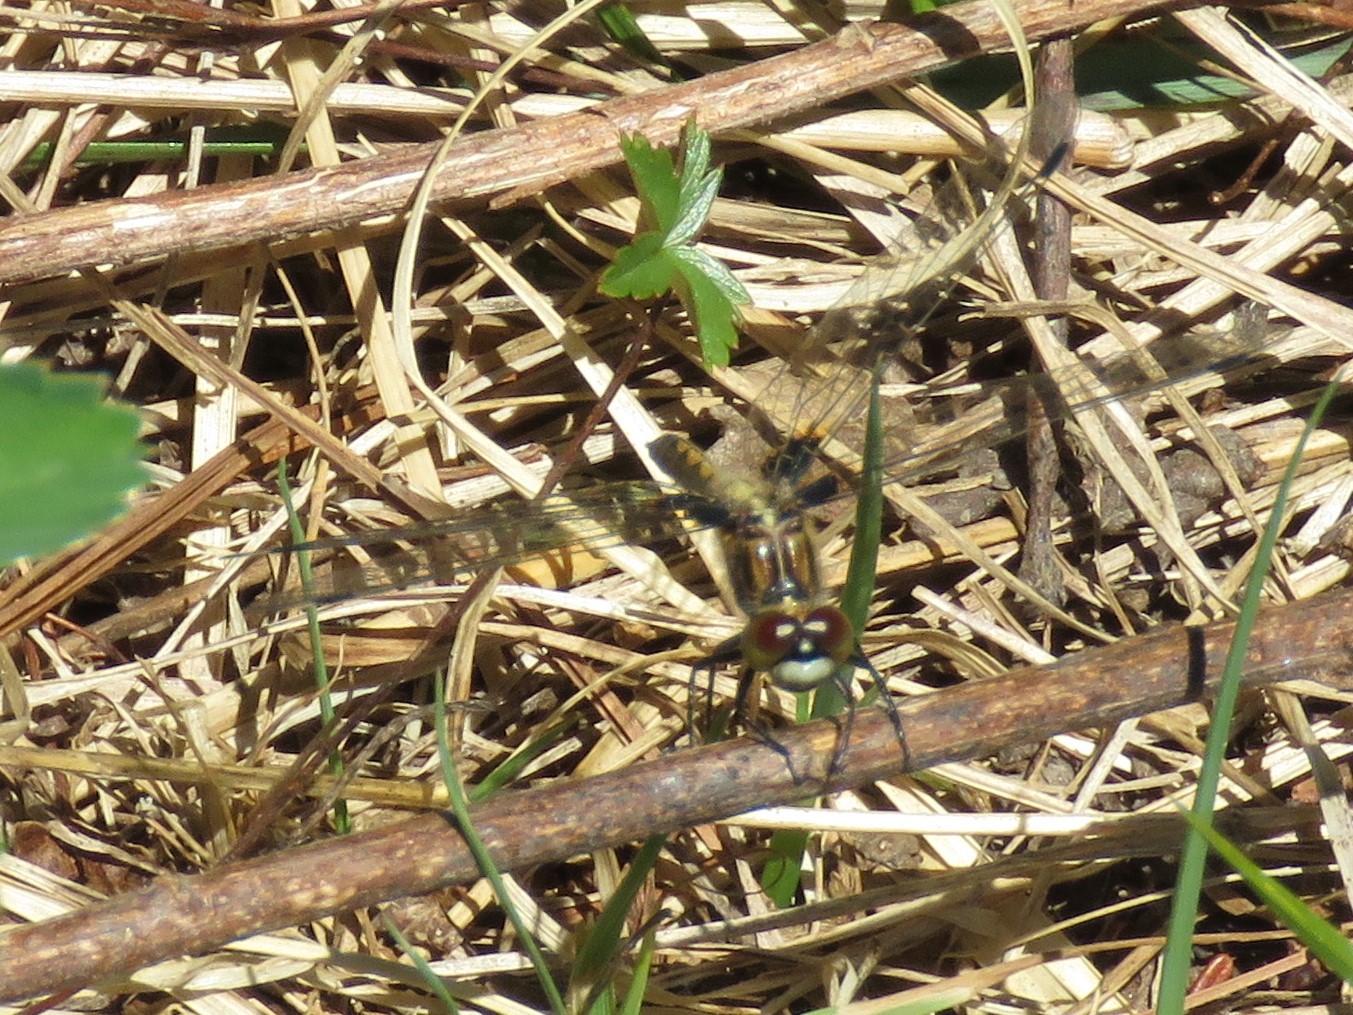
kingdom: Animalia
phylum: Arthropoda
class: Insecta
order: Odonata
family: Libellulidae
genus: Leucorrhinia
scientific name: Leucorrhinia hudsonica
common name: Hudsonian whiteface
